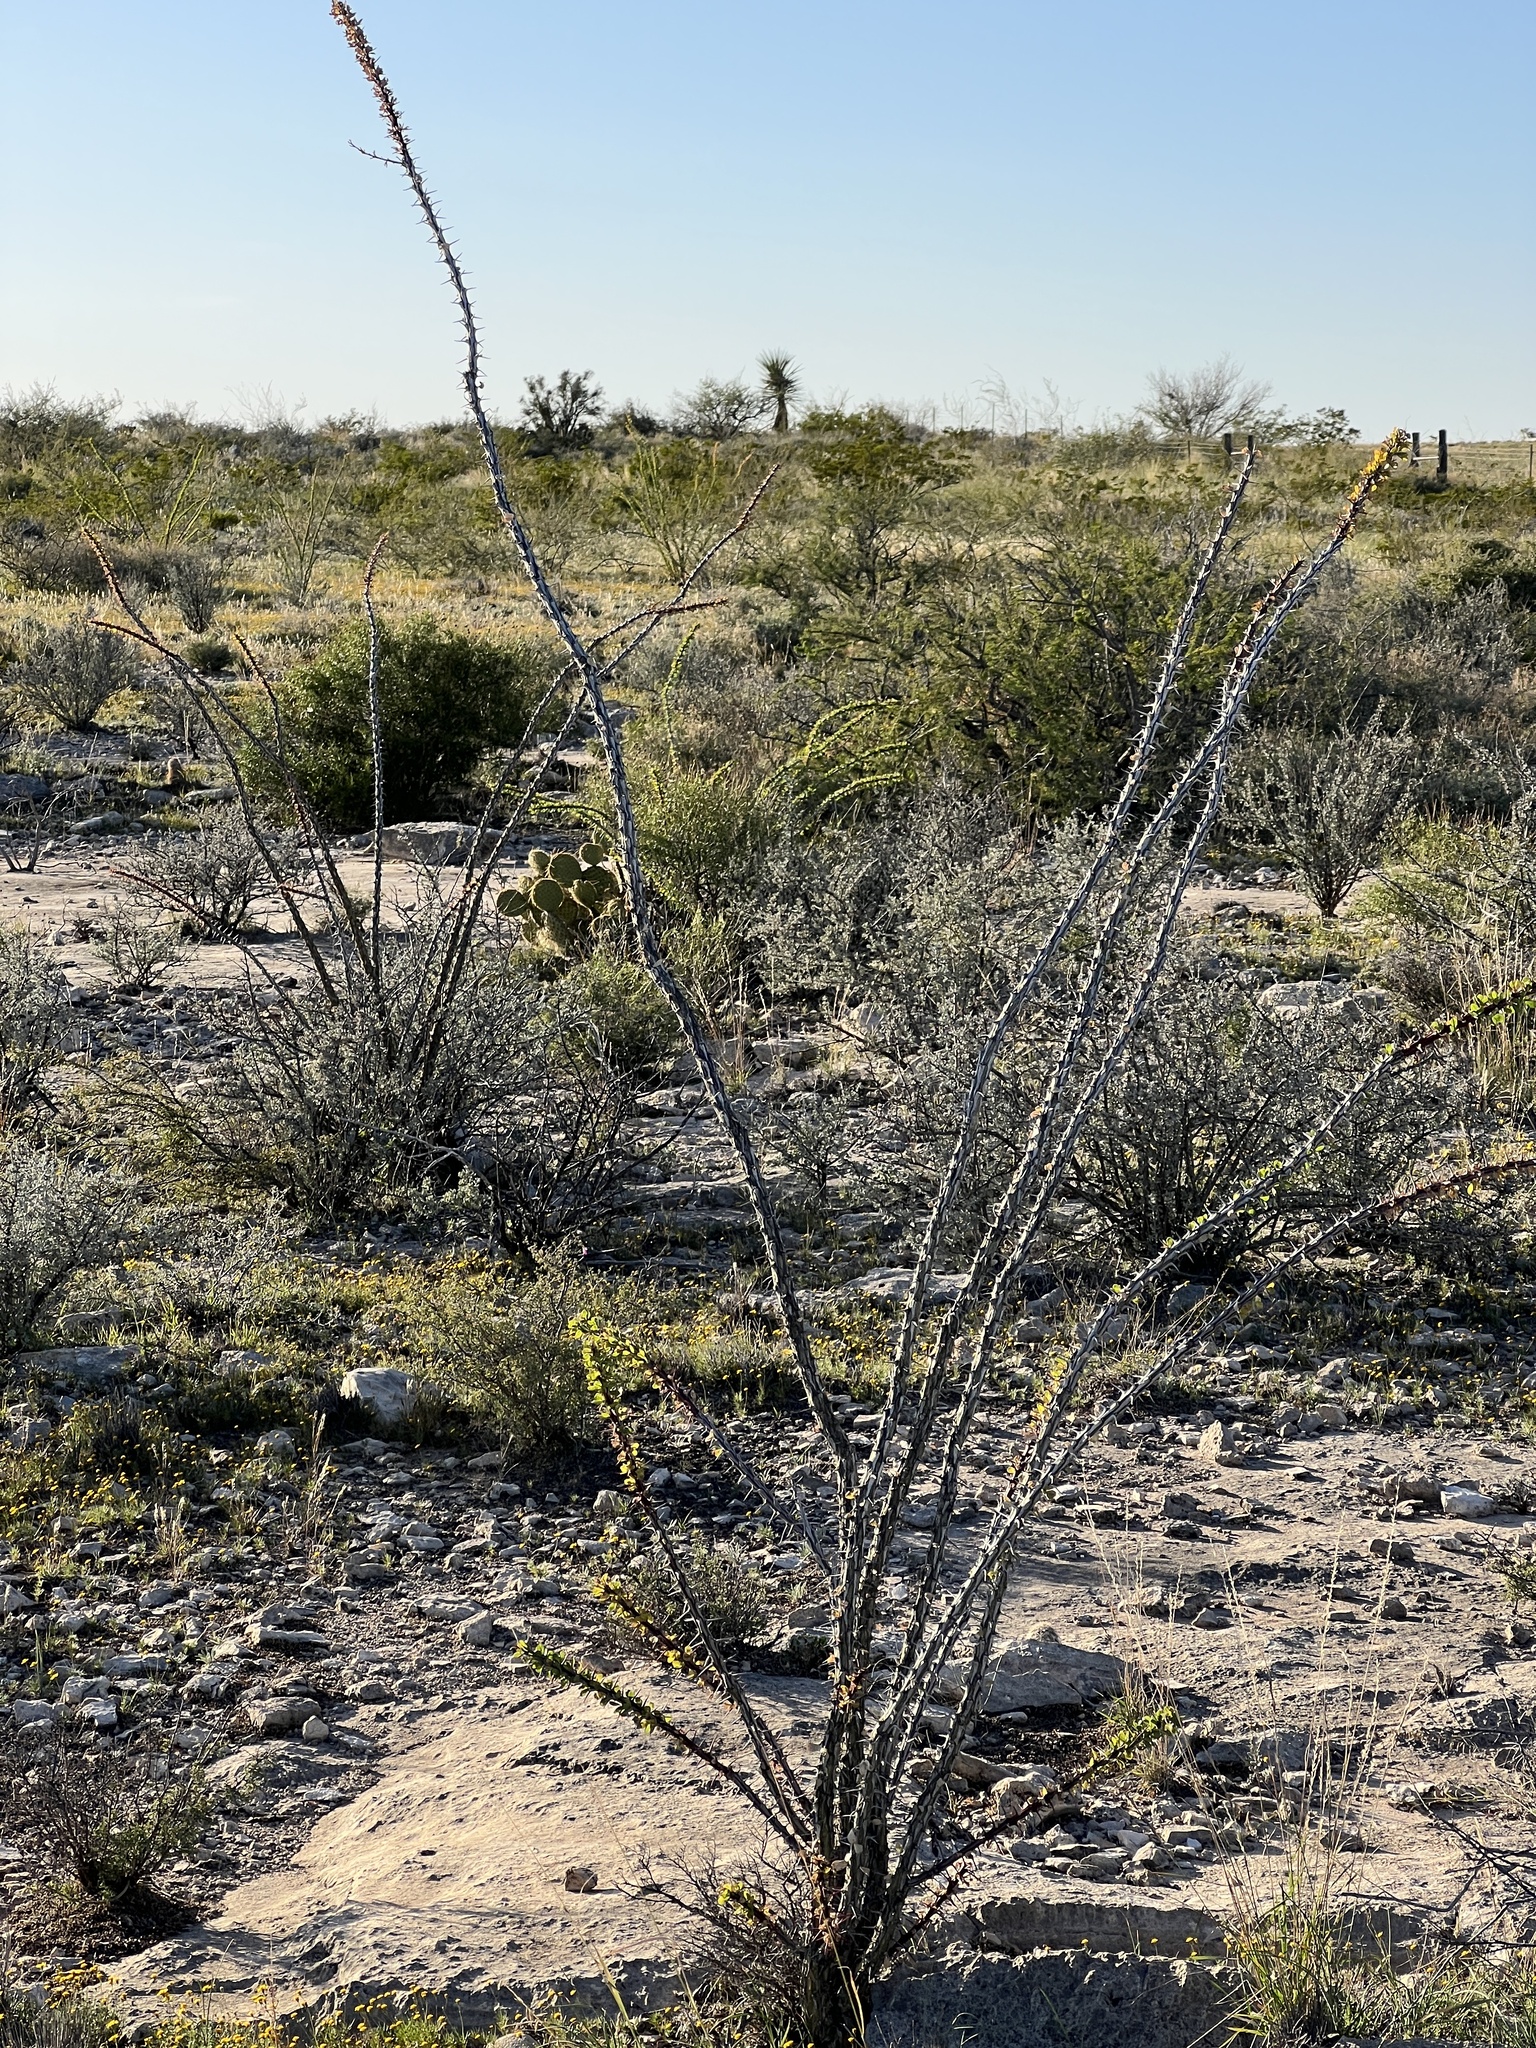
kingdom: Plantae
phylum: Tracheophyta
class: Magnoliopsida
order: Ericales
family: Fouquieriaceae
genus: Fouquieria
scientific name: Fouquieria splendens
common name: Vine-cactus
